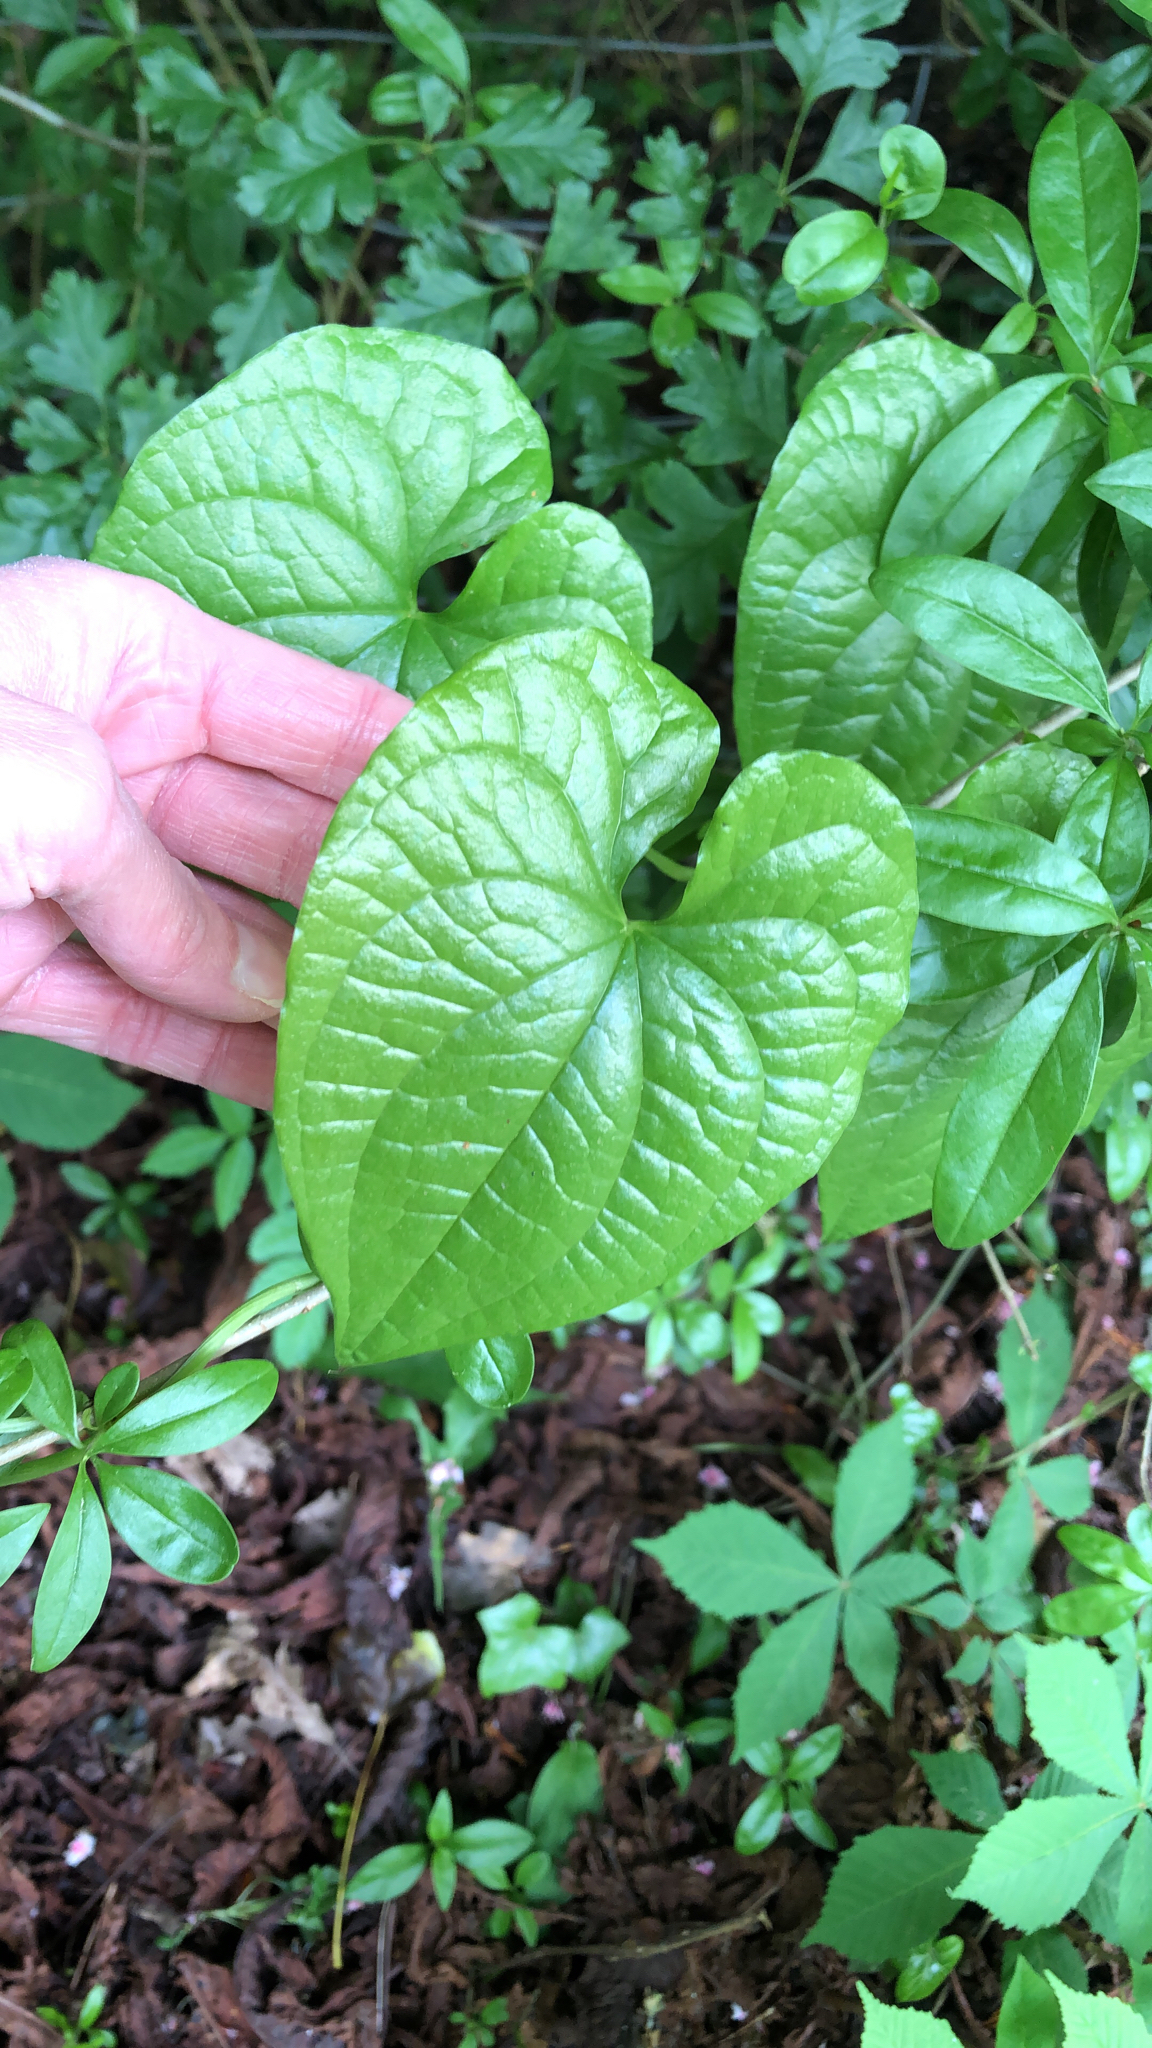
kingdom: Plantae
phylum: Tracheophyta
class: Liliopsida
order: Dioscoreales
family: Dioscoreaceae
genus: Dioscorea
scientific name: Dioscorea communis
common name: Black-bindweed
